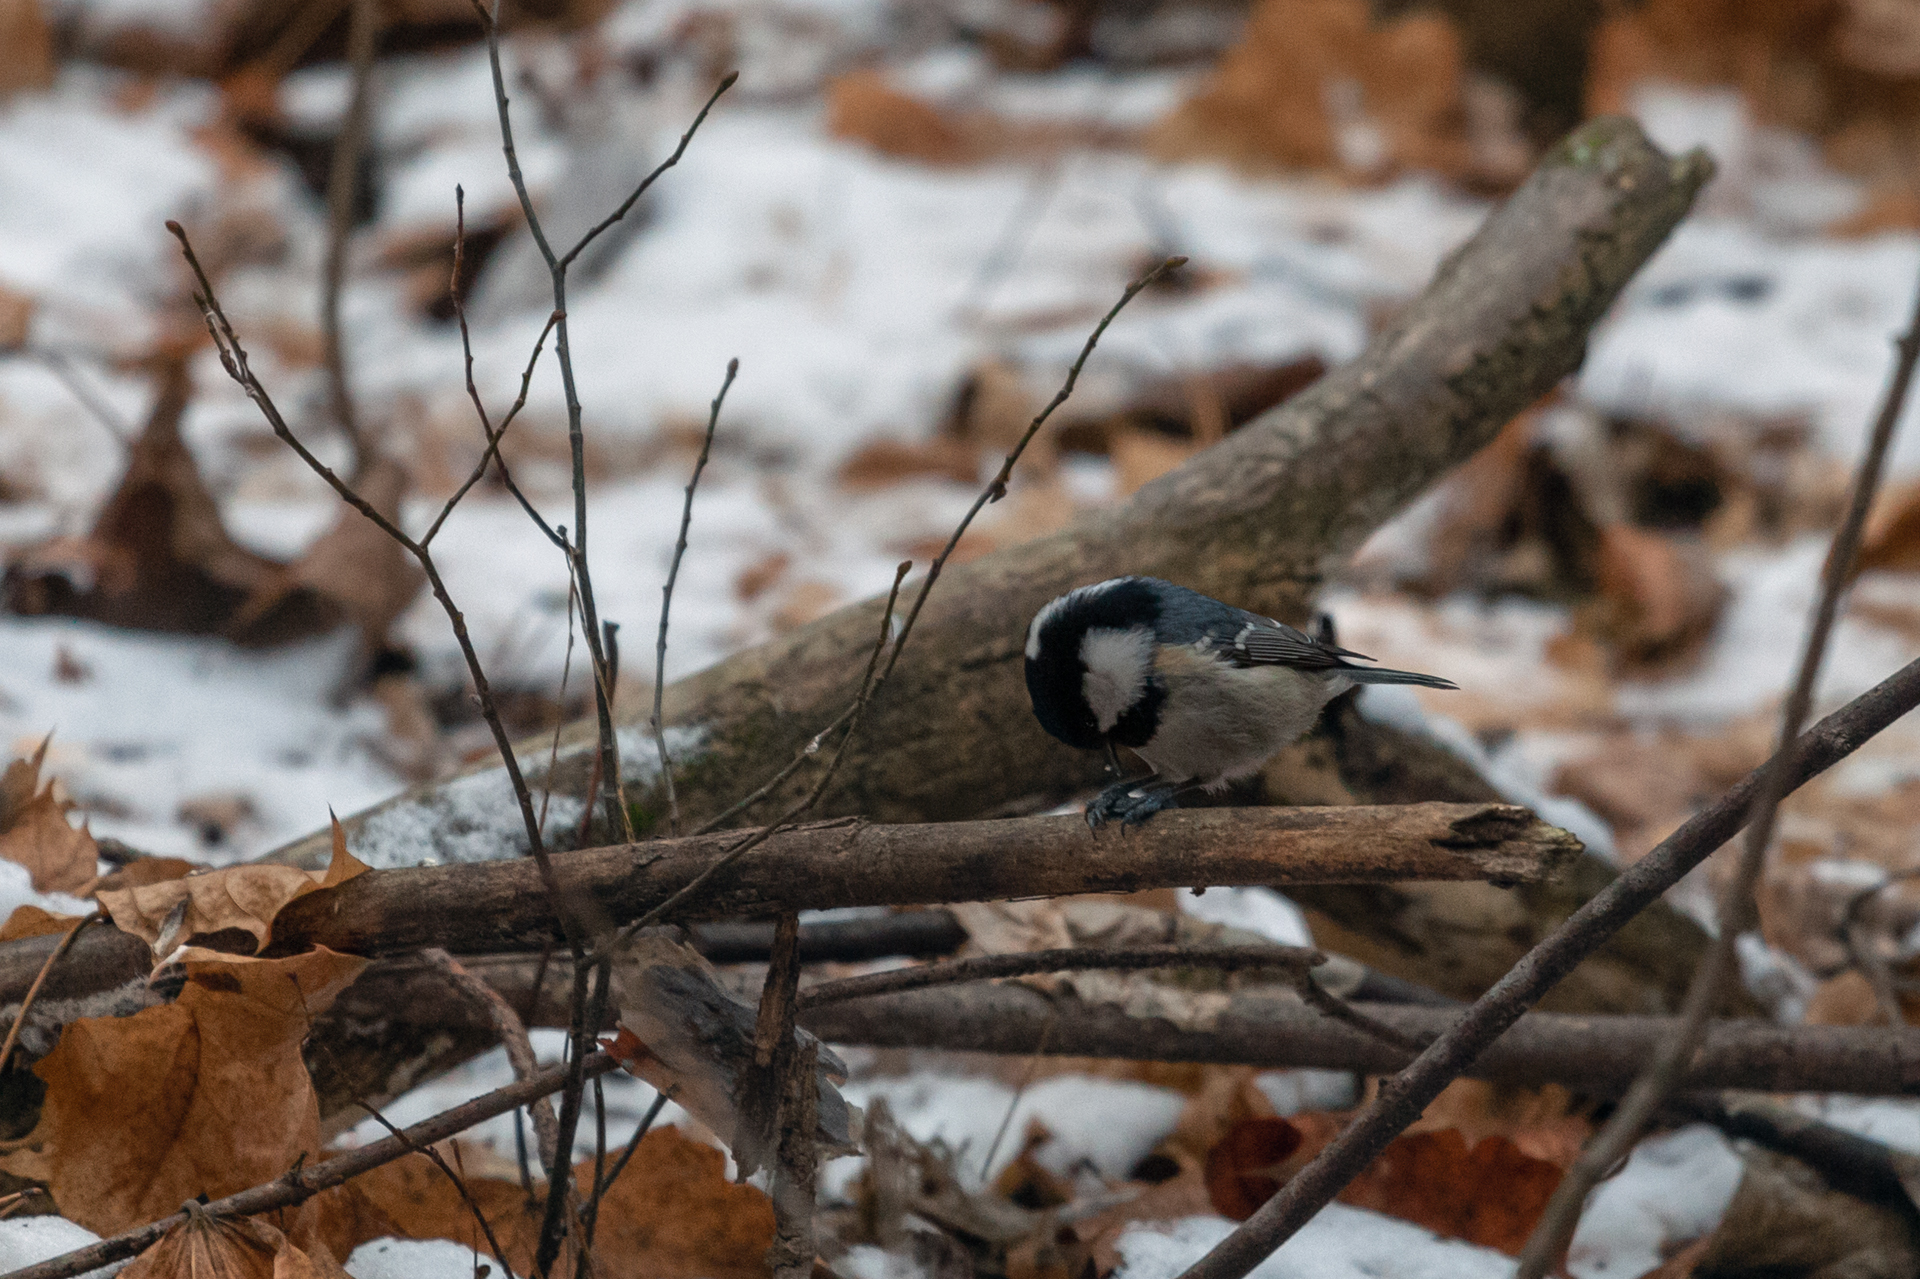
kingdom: Animalia
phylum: Chordata
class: Aves
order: Passeriformes
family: Paridae
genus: Periparus
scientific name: Periparus ater
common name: Coal tit
